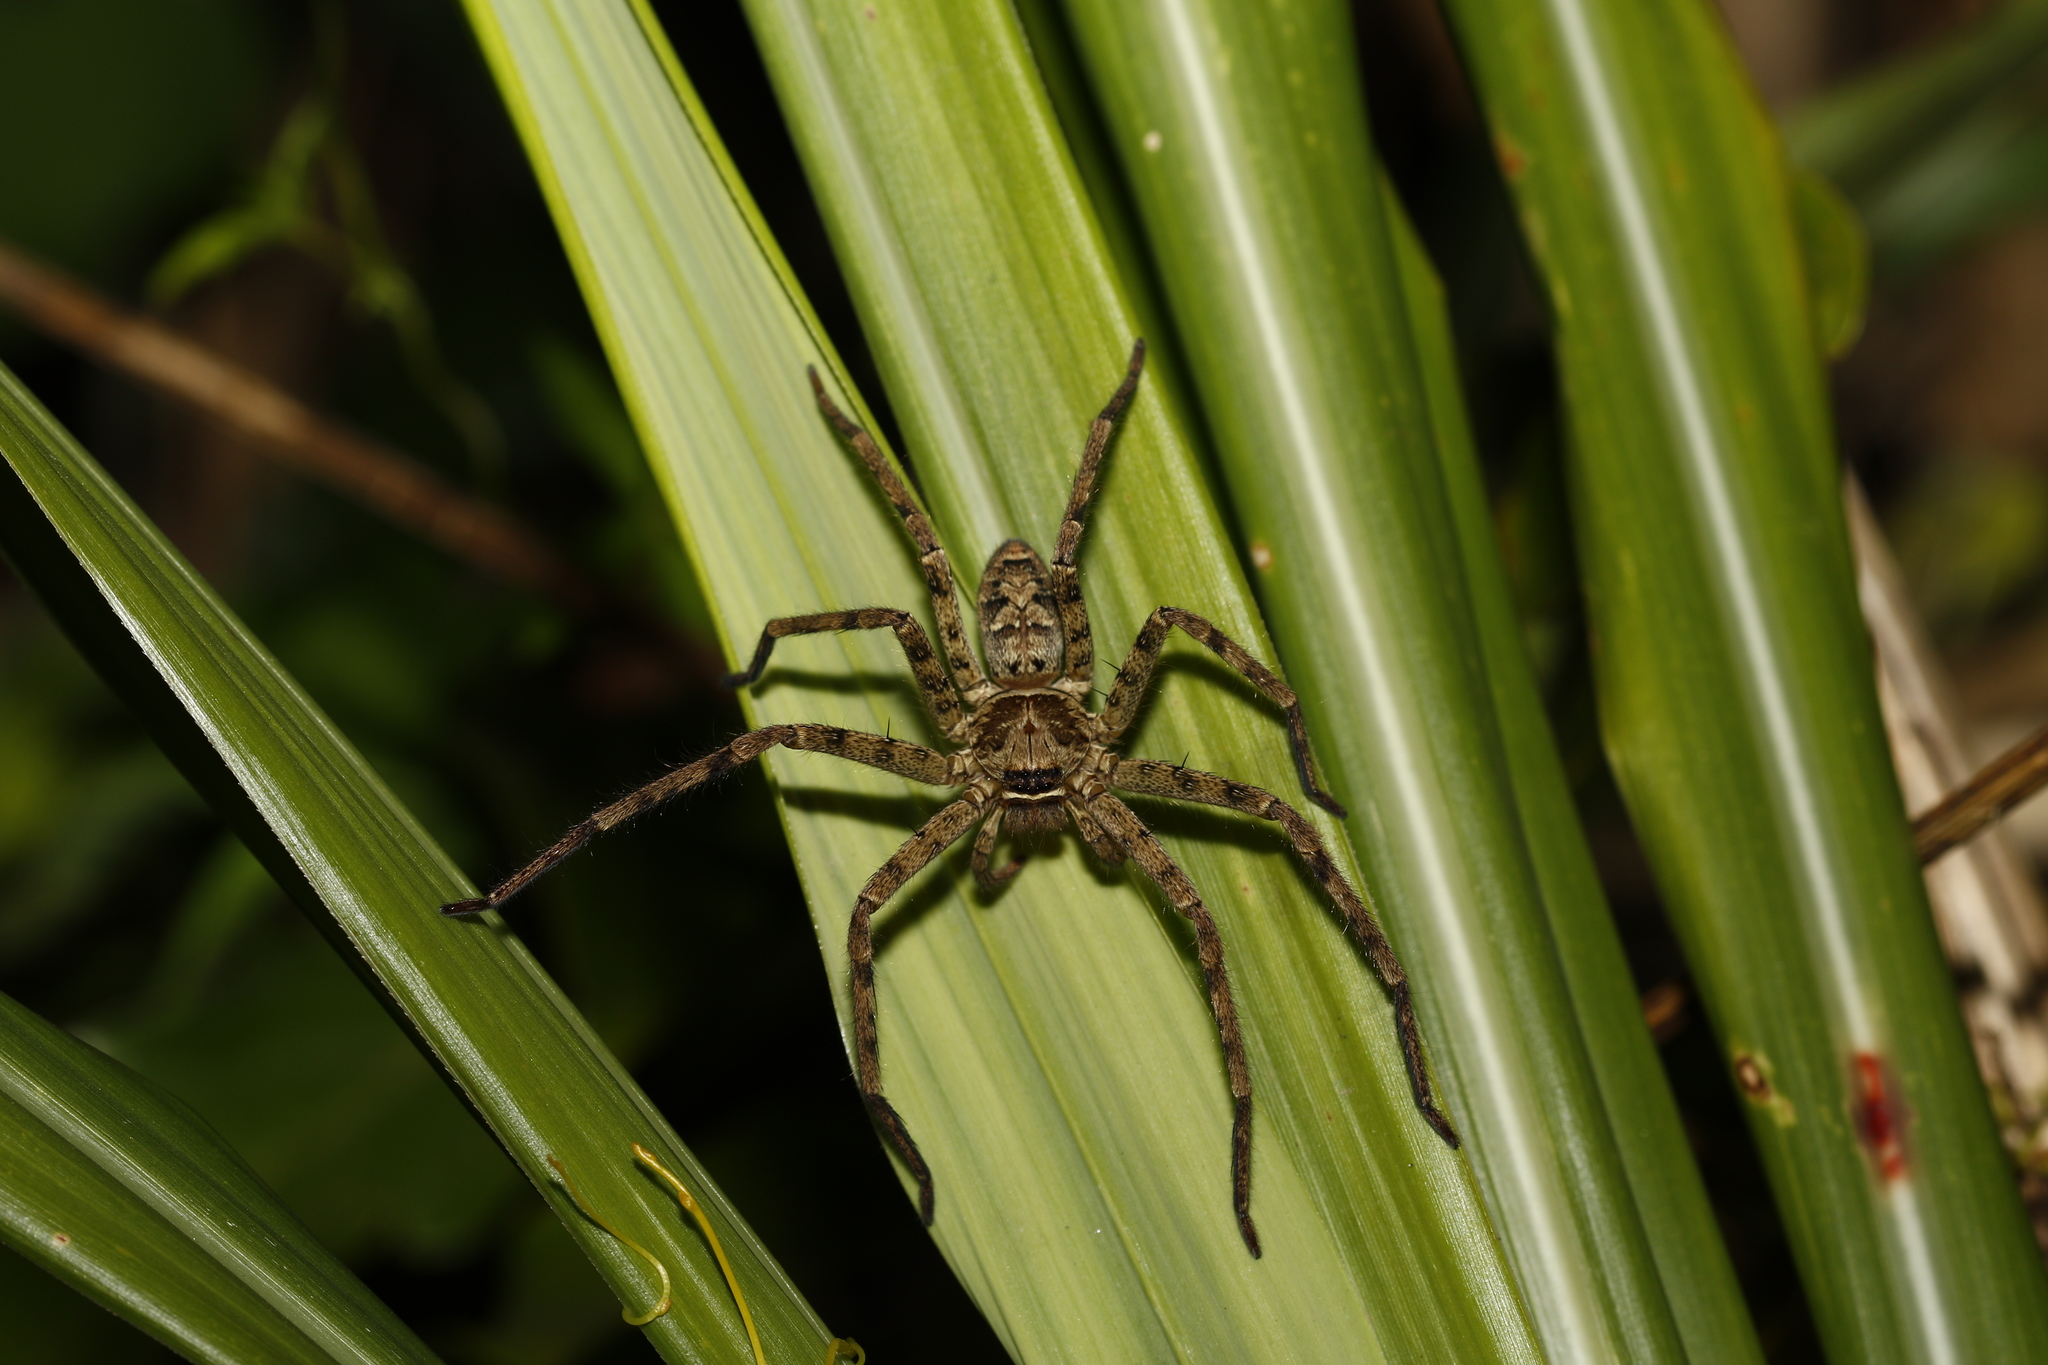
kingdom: Animalia
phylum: Arthropoda
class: Arachnida
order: Araneae
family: Sparassidae
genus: Heteropoda
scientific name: Heteropoda venatoria
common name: Huntsman spider
